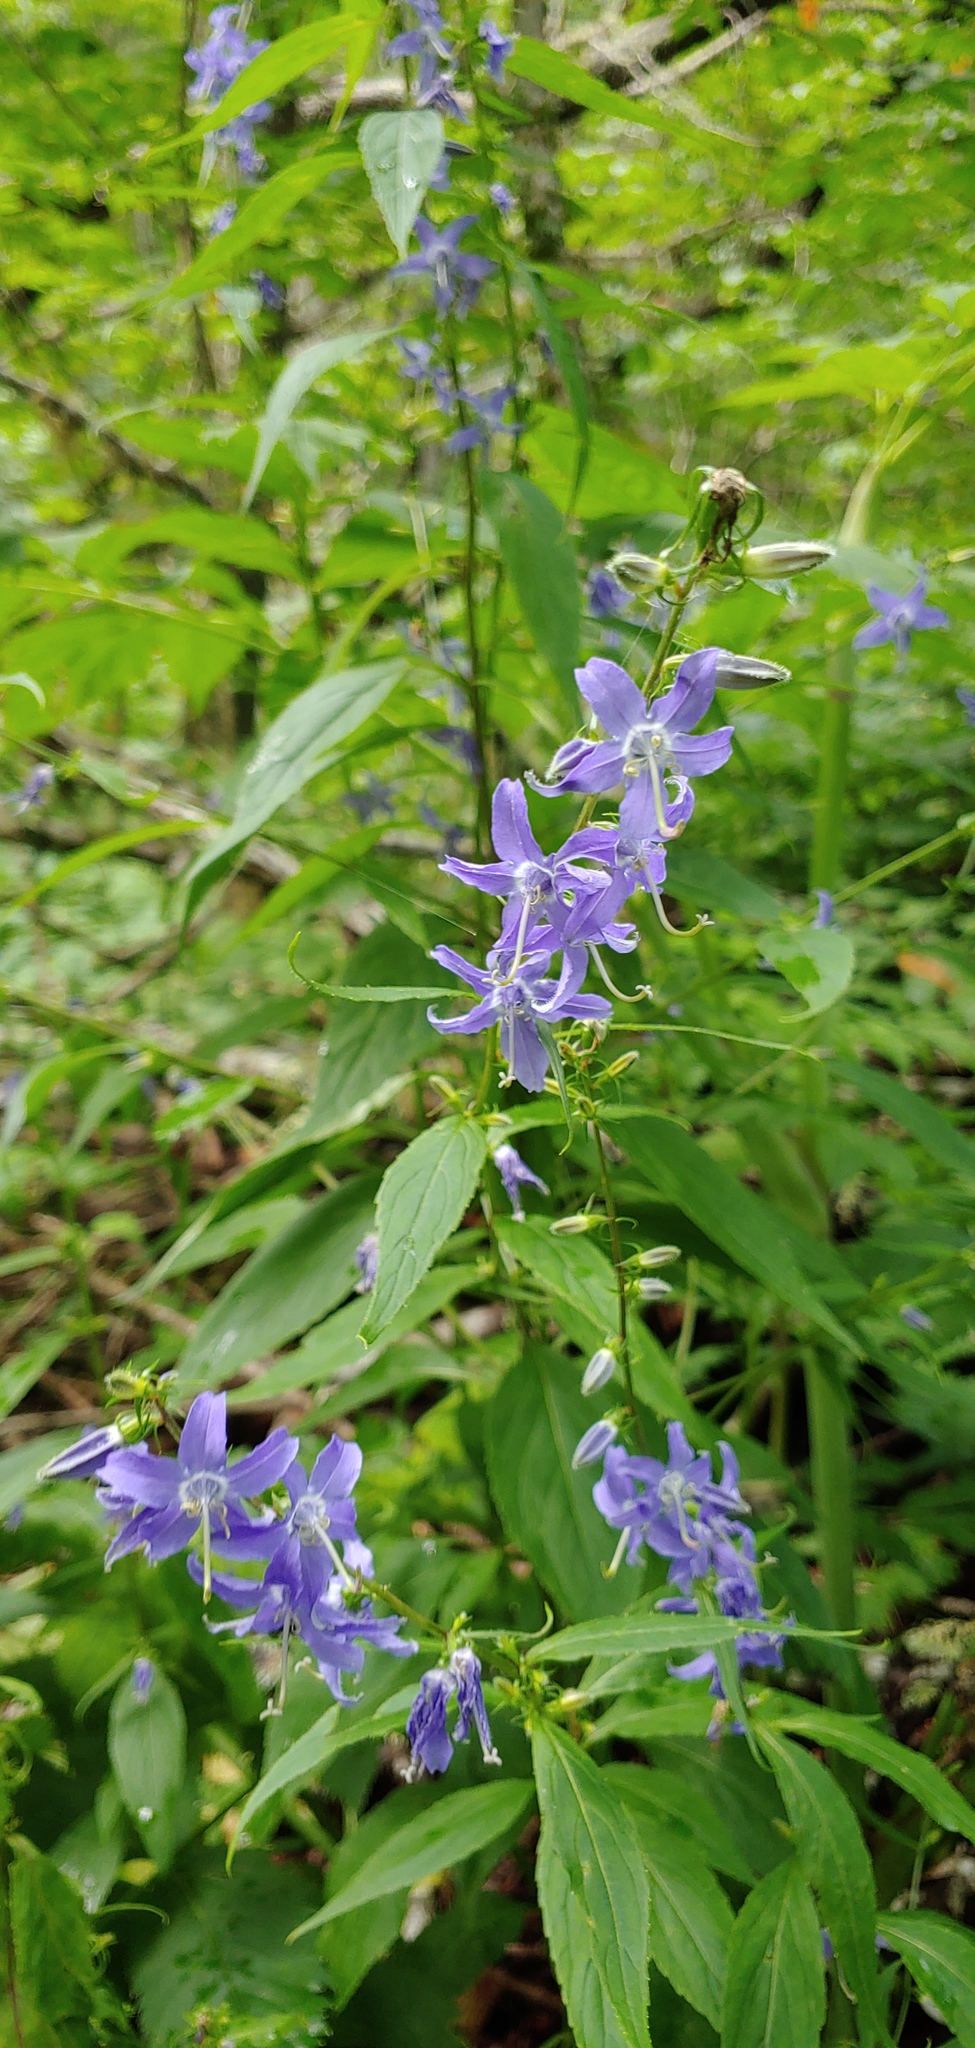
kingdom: Plantae
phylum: Tracheophyta
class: Magnoliopsida
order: Asterales
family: Campanulaceae
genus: Campanulastrum
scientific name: Campanulastrum americanum
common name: American bellflower
